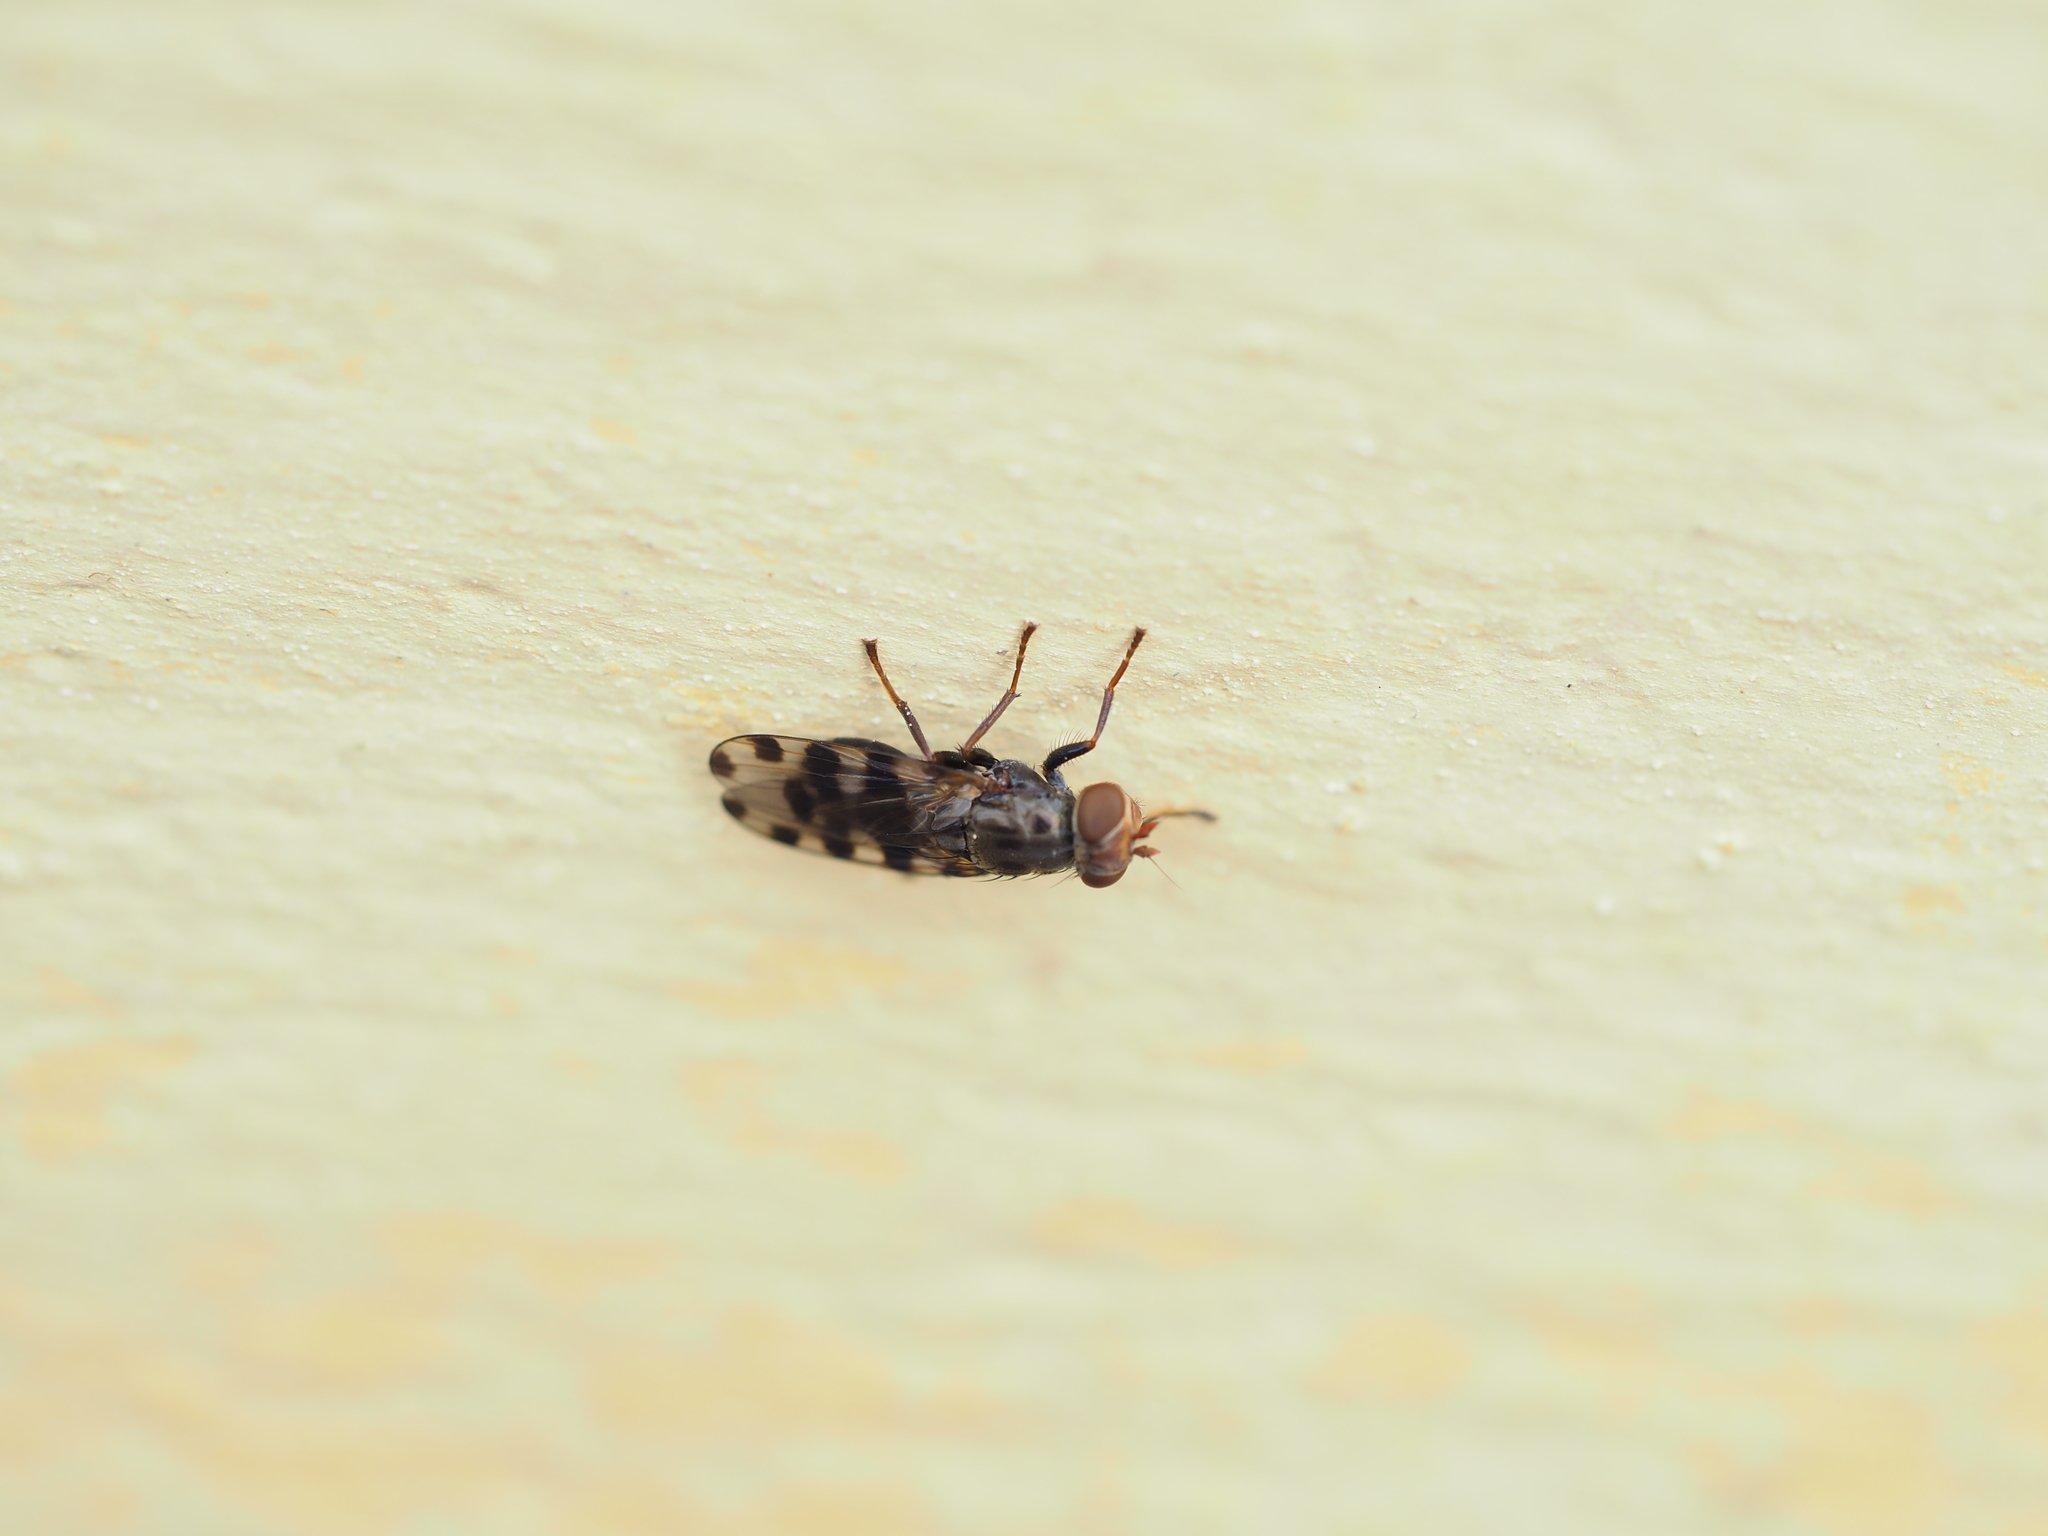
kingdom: Animalia
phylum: Arthropoda
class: Insecta
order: Diptera
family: Ulidiidae
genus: Ceroxys
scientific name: Ceroxys hyalinata
